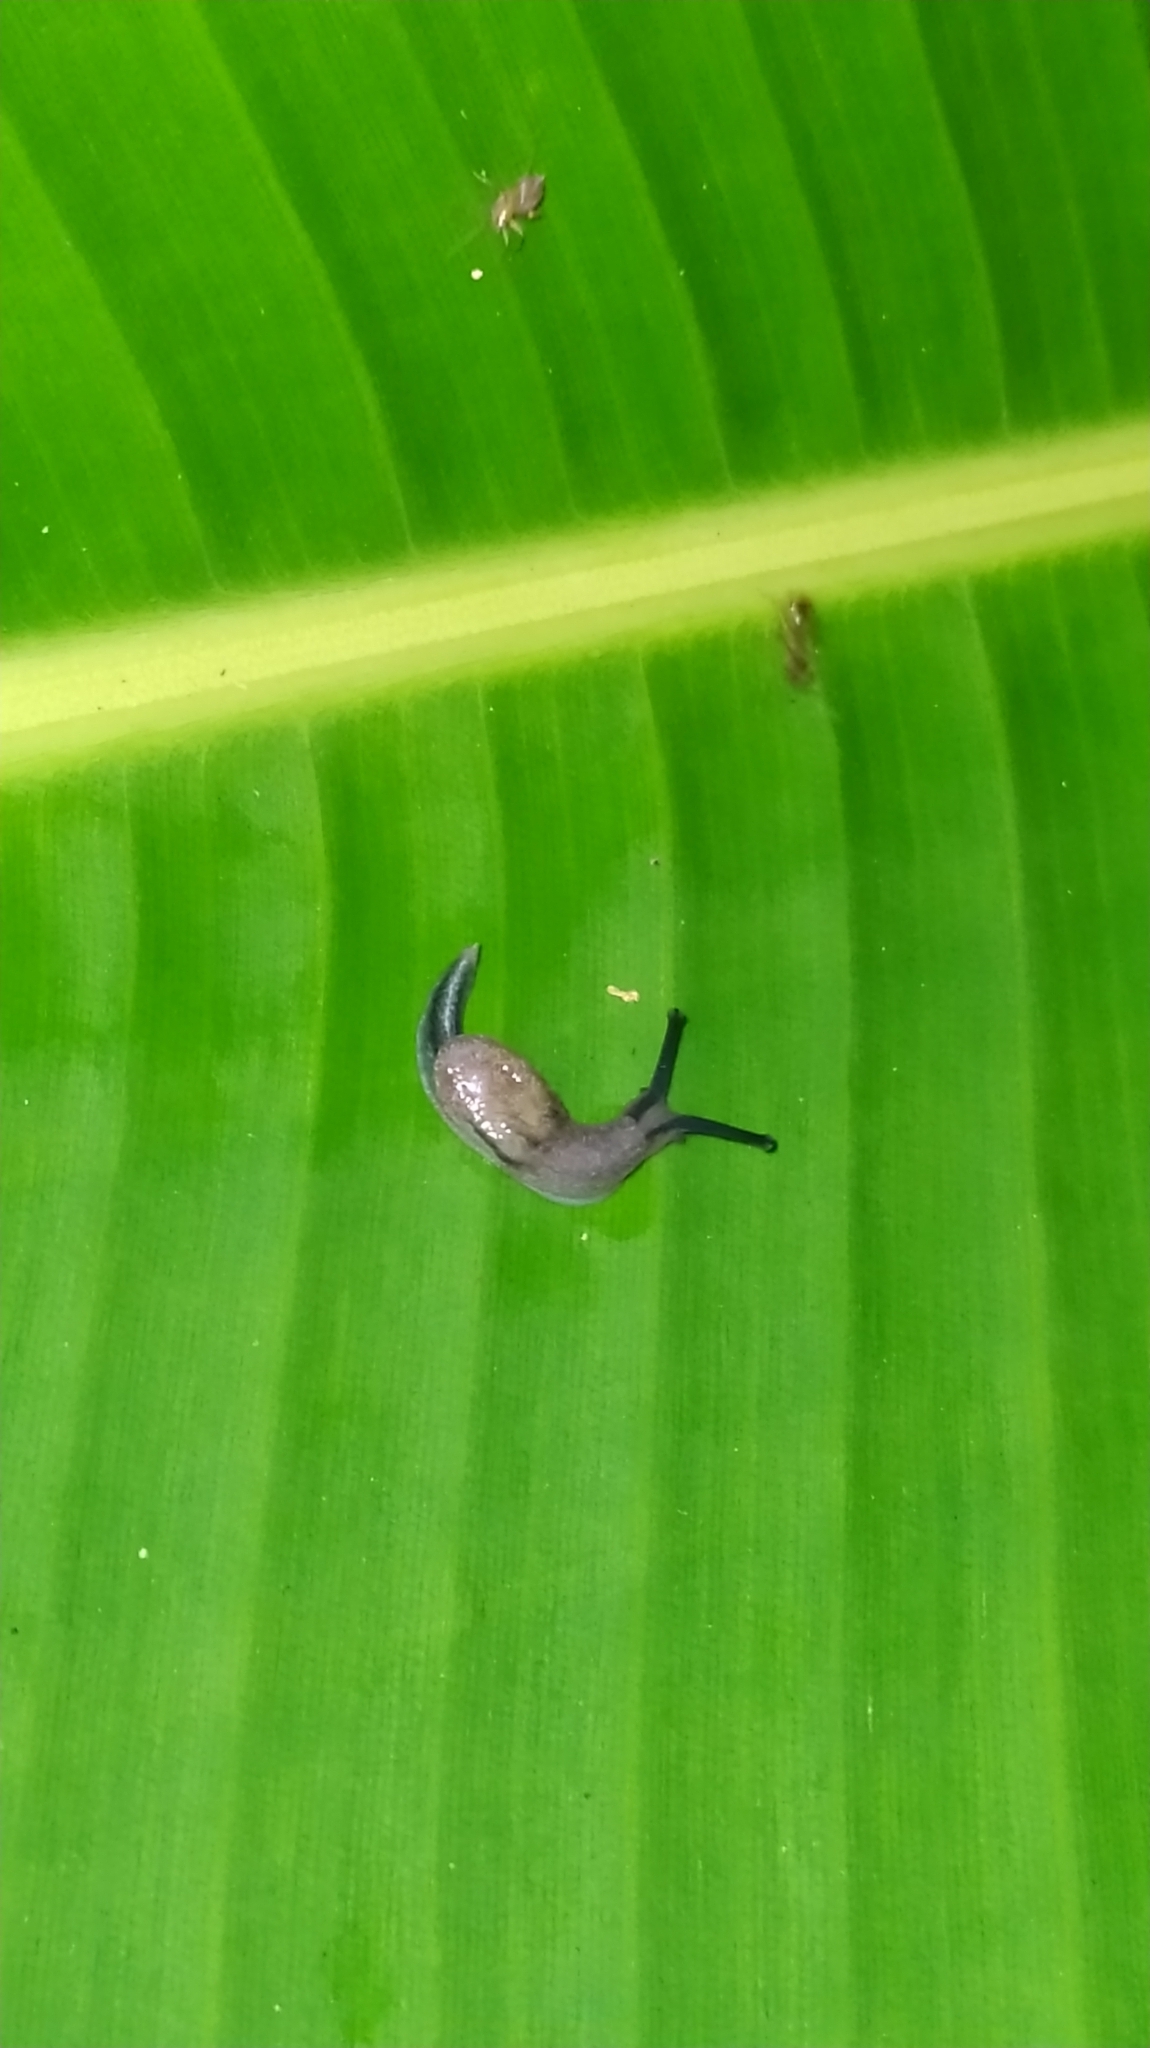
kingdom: Animalia
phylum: Mollusca
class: Gastropoda
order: Stylommatophora
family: Ariophantidae
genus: Parmarion
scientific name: Parmarion martensi
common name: Semi-slug
